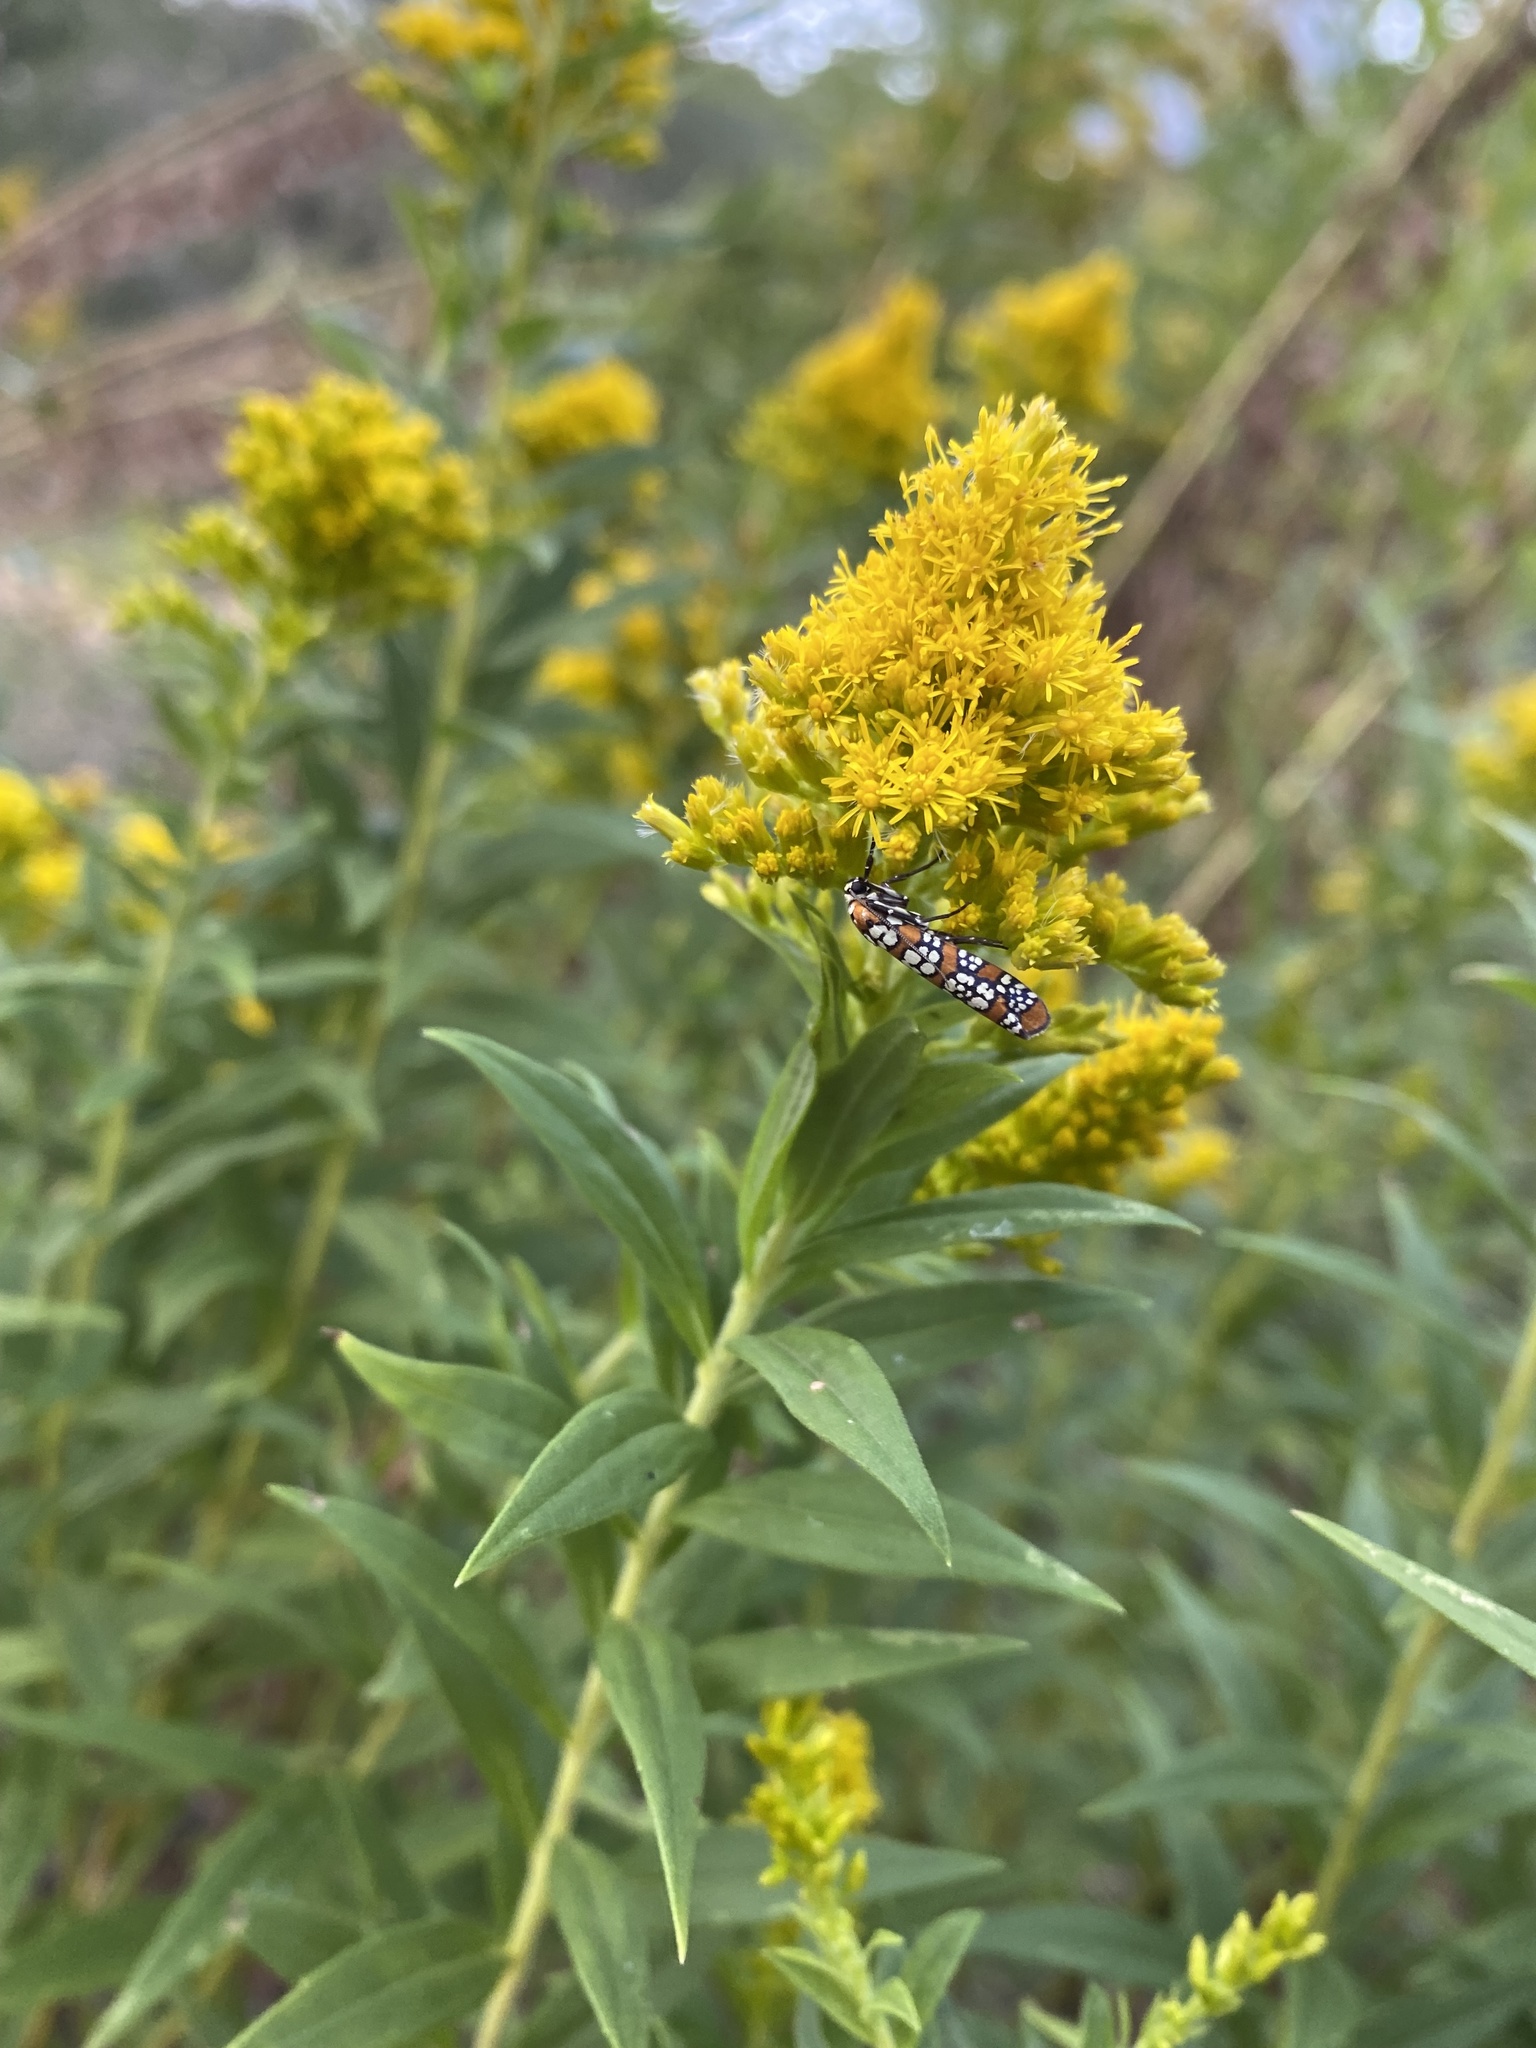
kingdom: Animalia
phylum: Arthropoda
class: Insecta
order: Lepidoptera
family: Attevidae
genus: Atteva
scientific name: Atteva punctella
